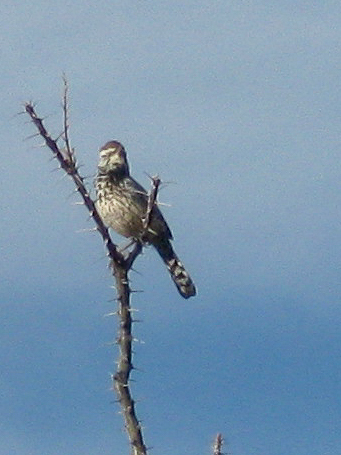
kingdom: Animalia
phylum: Chordata
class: Aves
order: Passeriformes
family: Troglodytidae
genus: Campylorhynchus
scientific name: Campylorhynchus brunneicapillus
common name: Cactus wren
